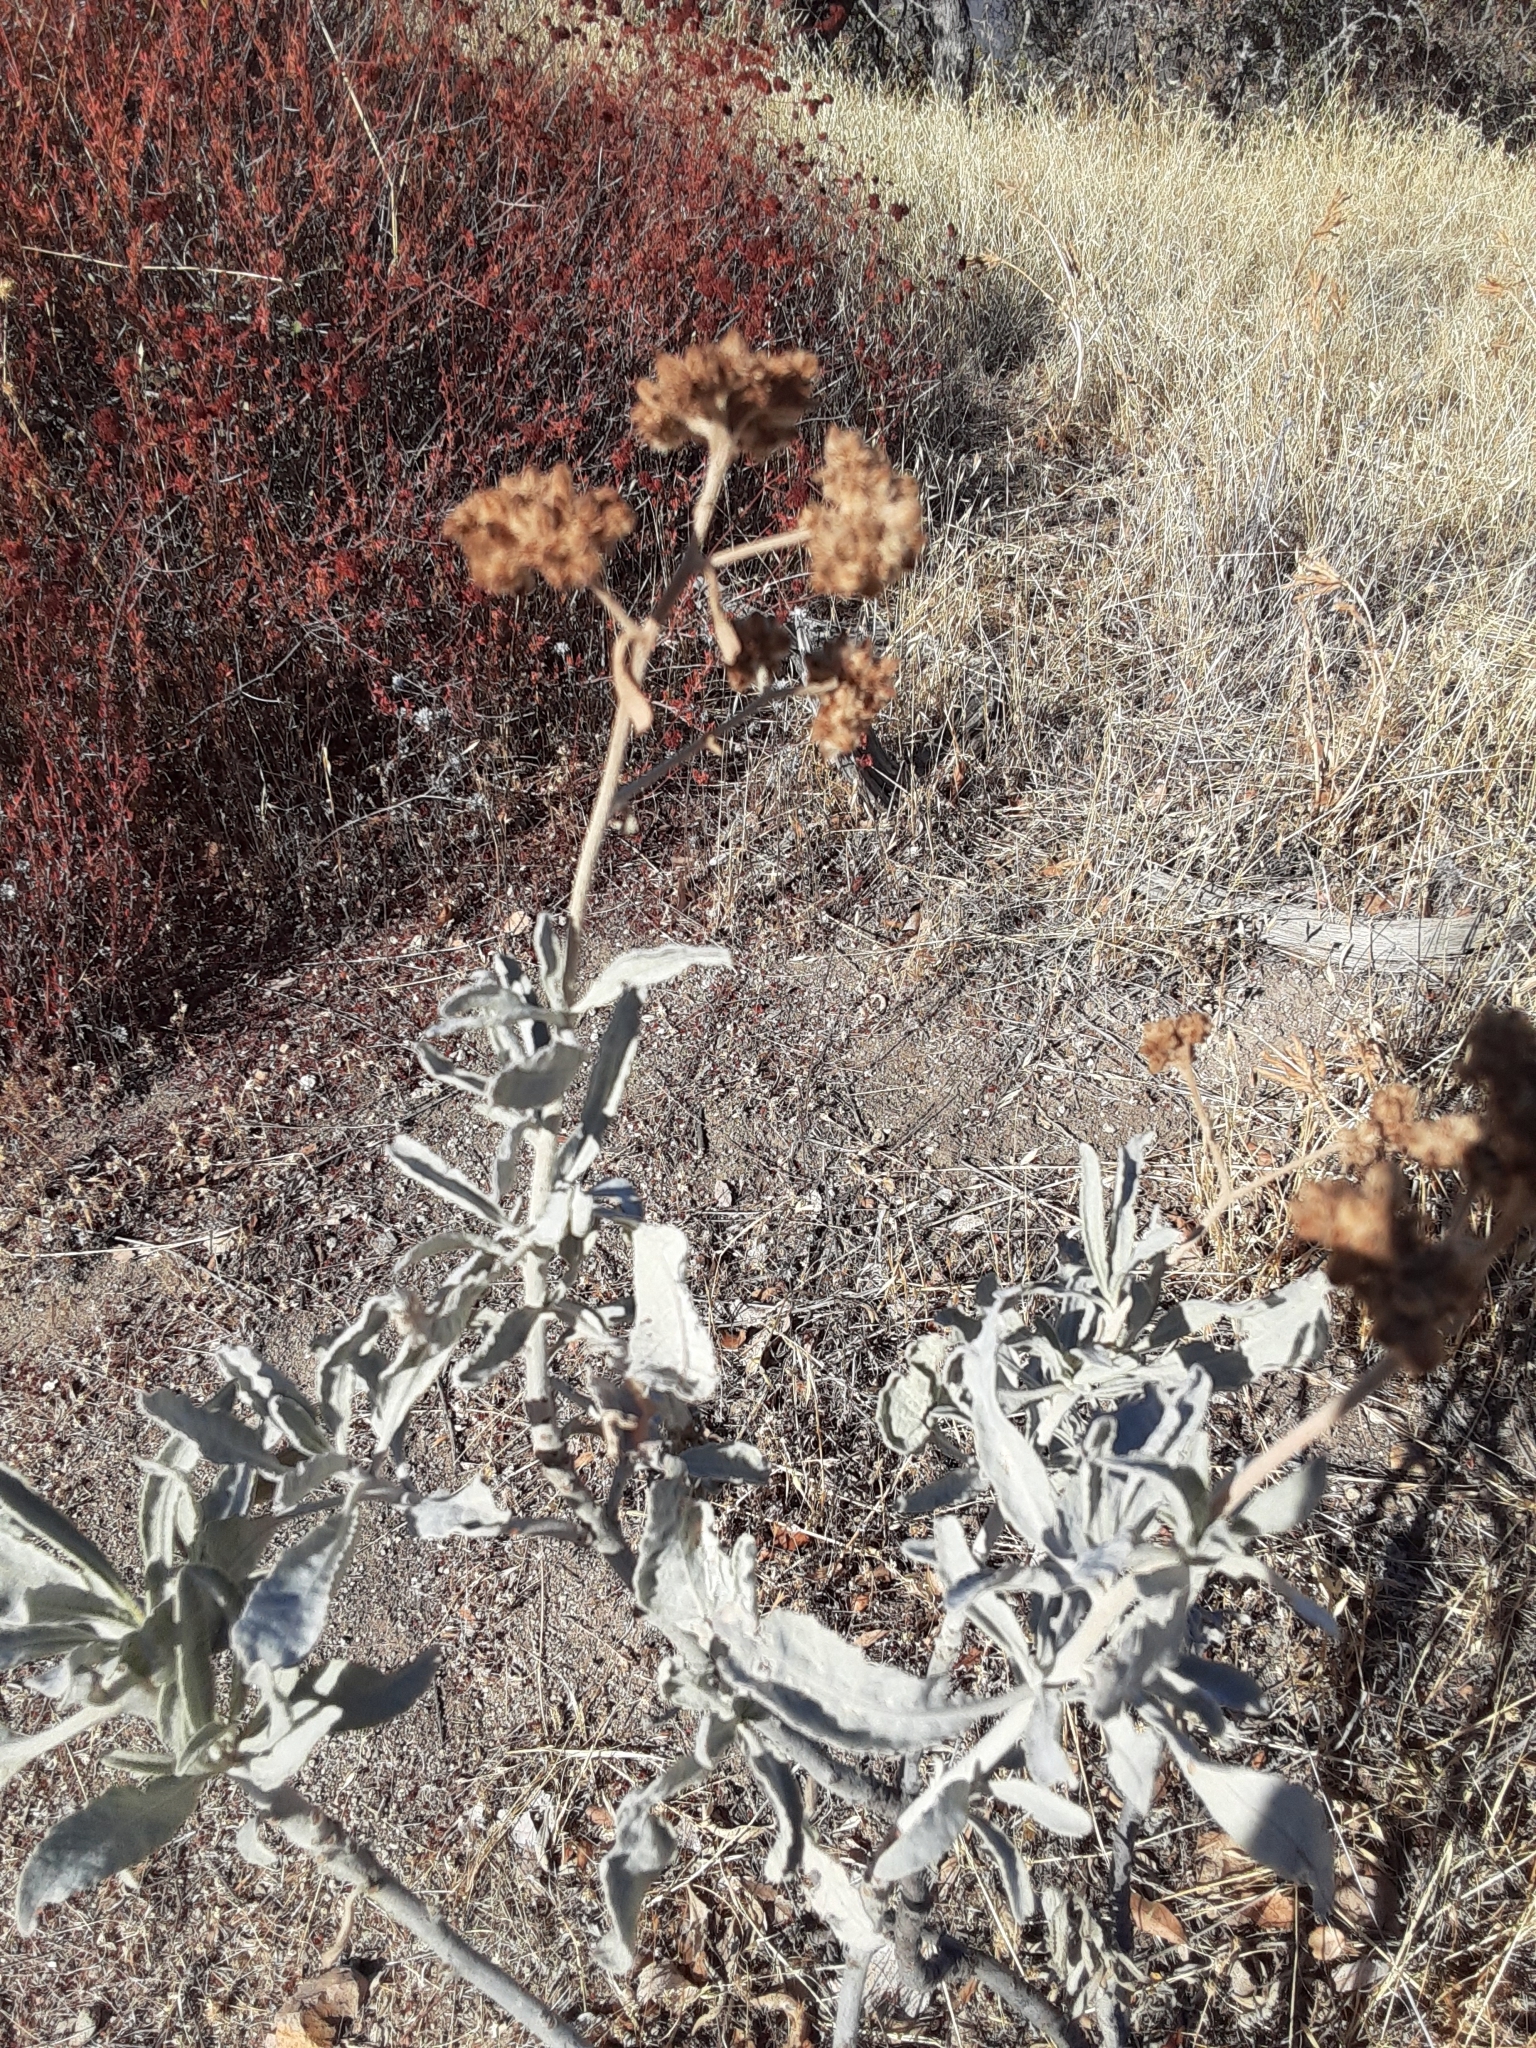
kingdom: Plantae
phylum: Tracheophyta
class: Magnoliopsida
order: Boraginales
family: Namaceae
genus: Eriodictyon
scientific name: Eriodictyon tomentosum
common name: Woolly yerba-santa
